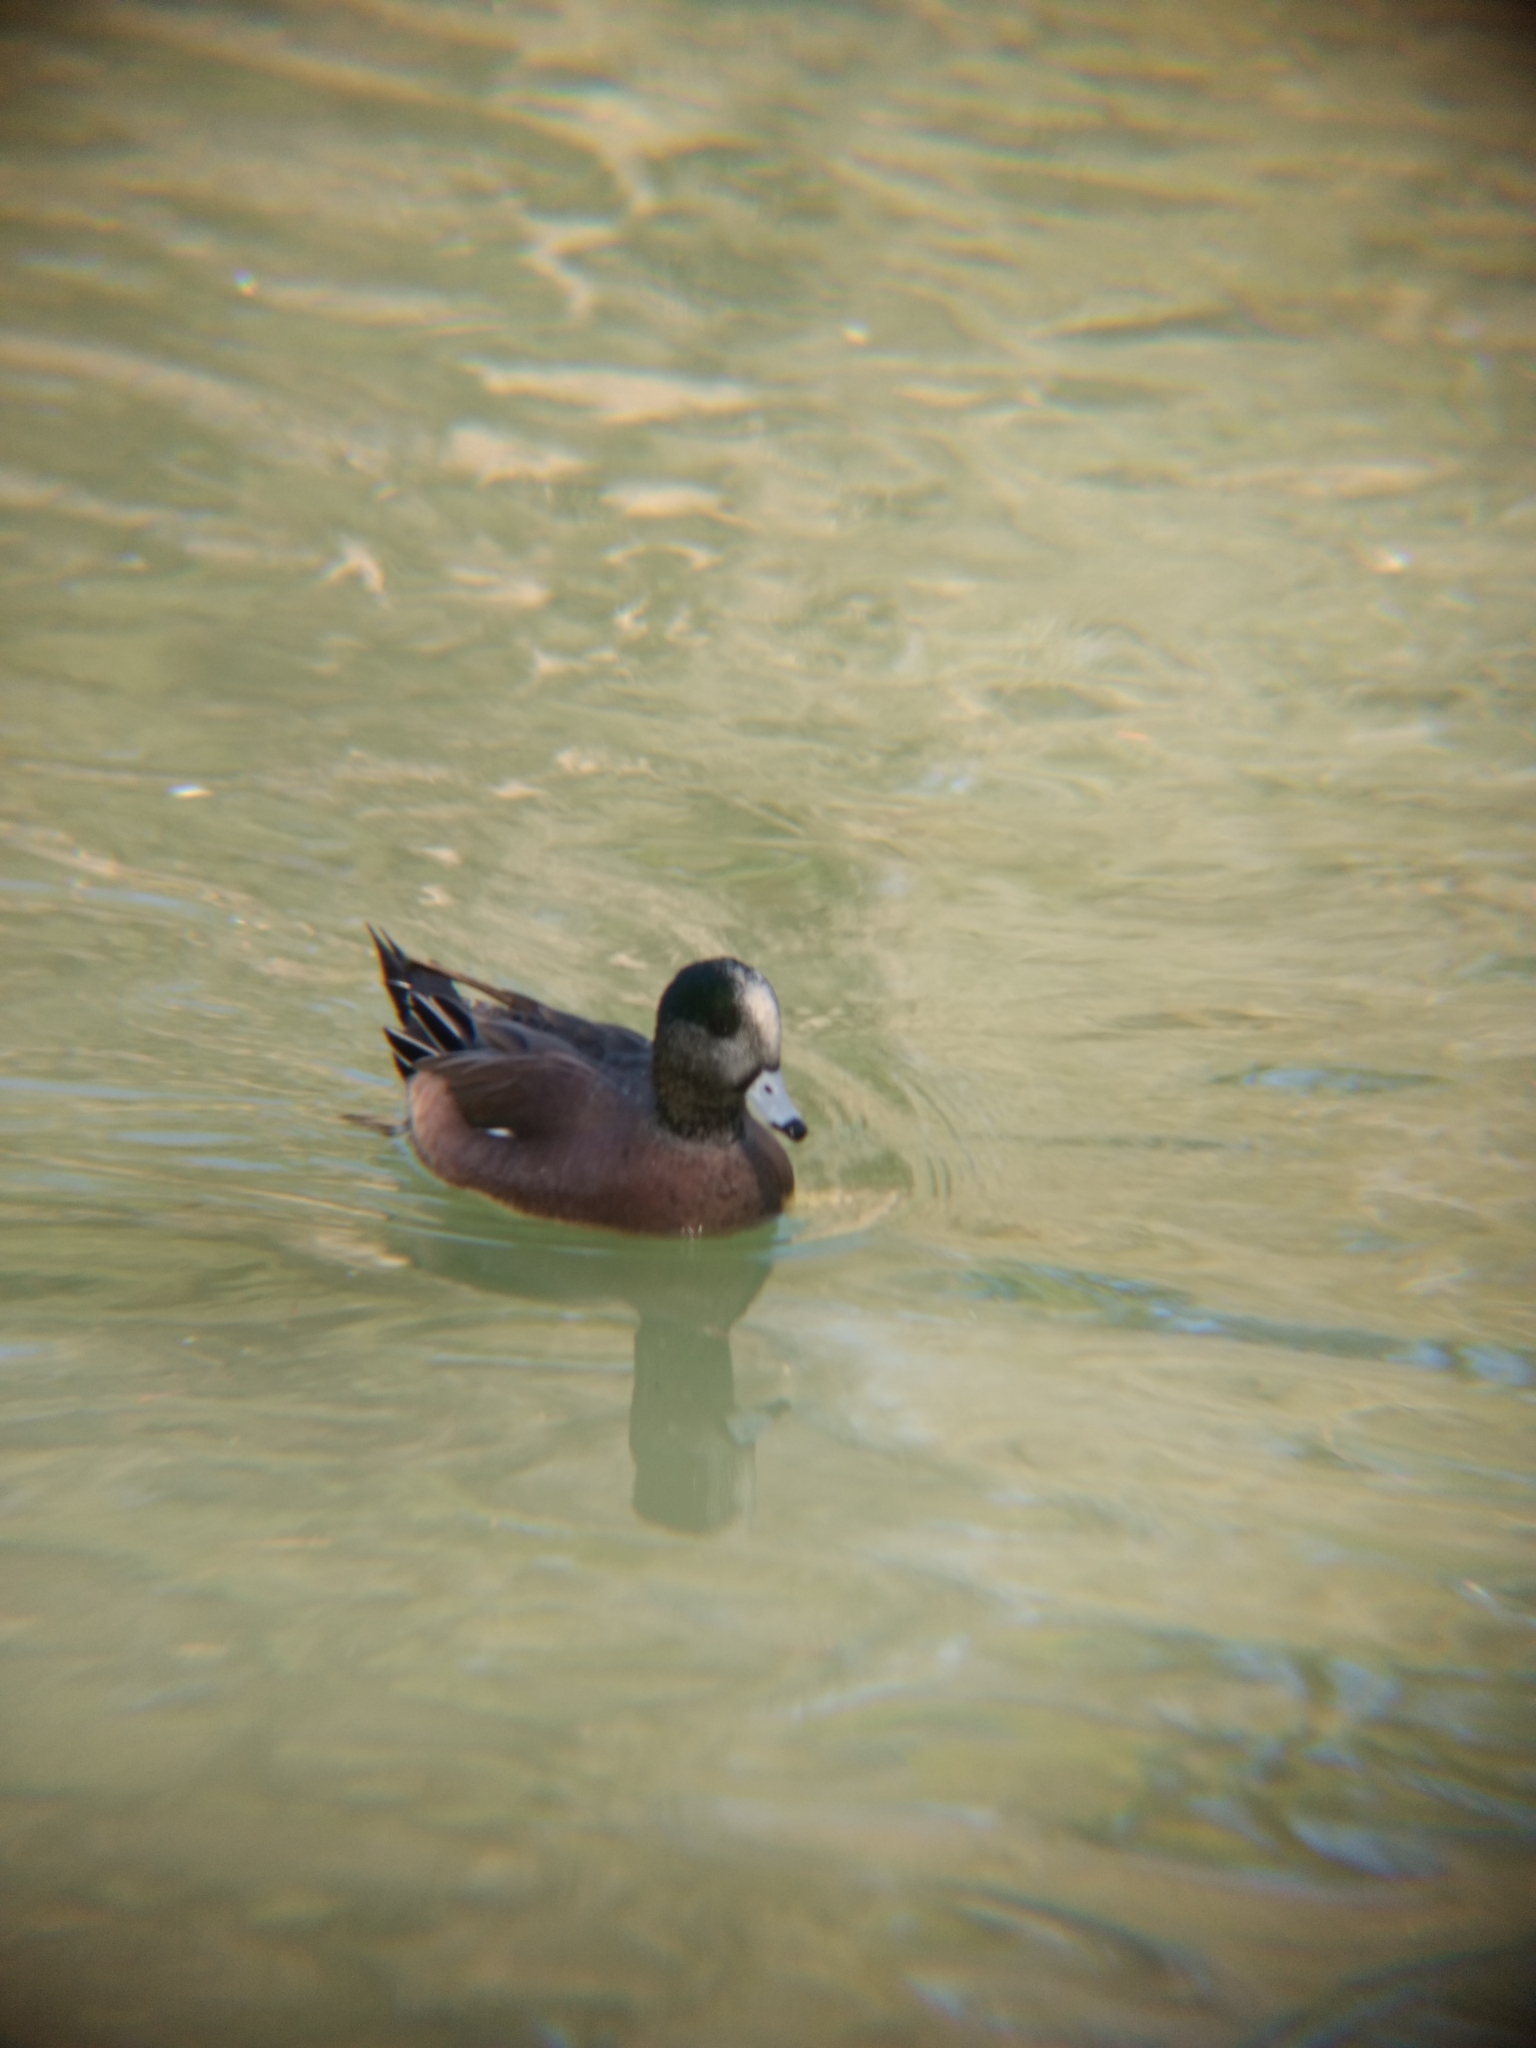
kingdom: Animalia
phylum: Chordata
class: Aves
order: Anseriformes
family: Anatidae
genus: Mareca
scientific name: Mareca americana
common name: American wigeon
